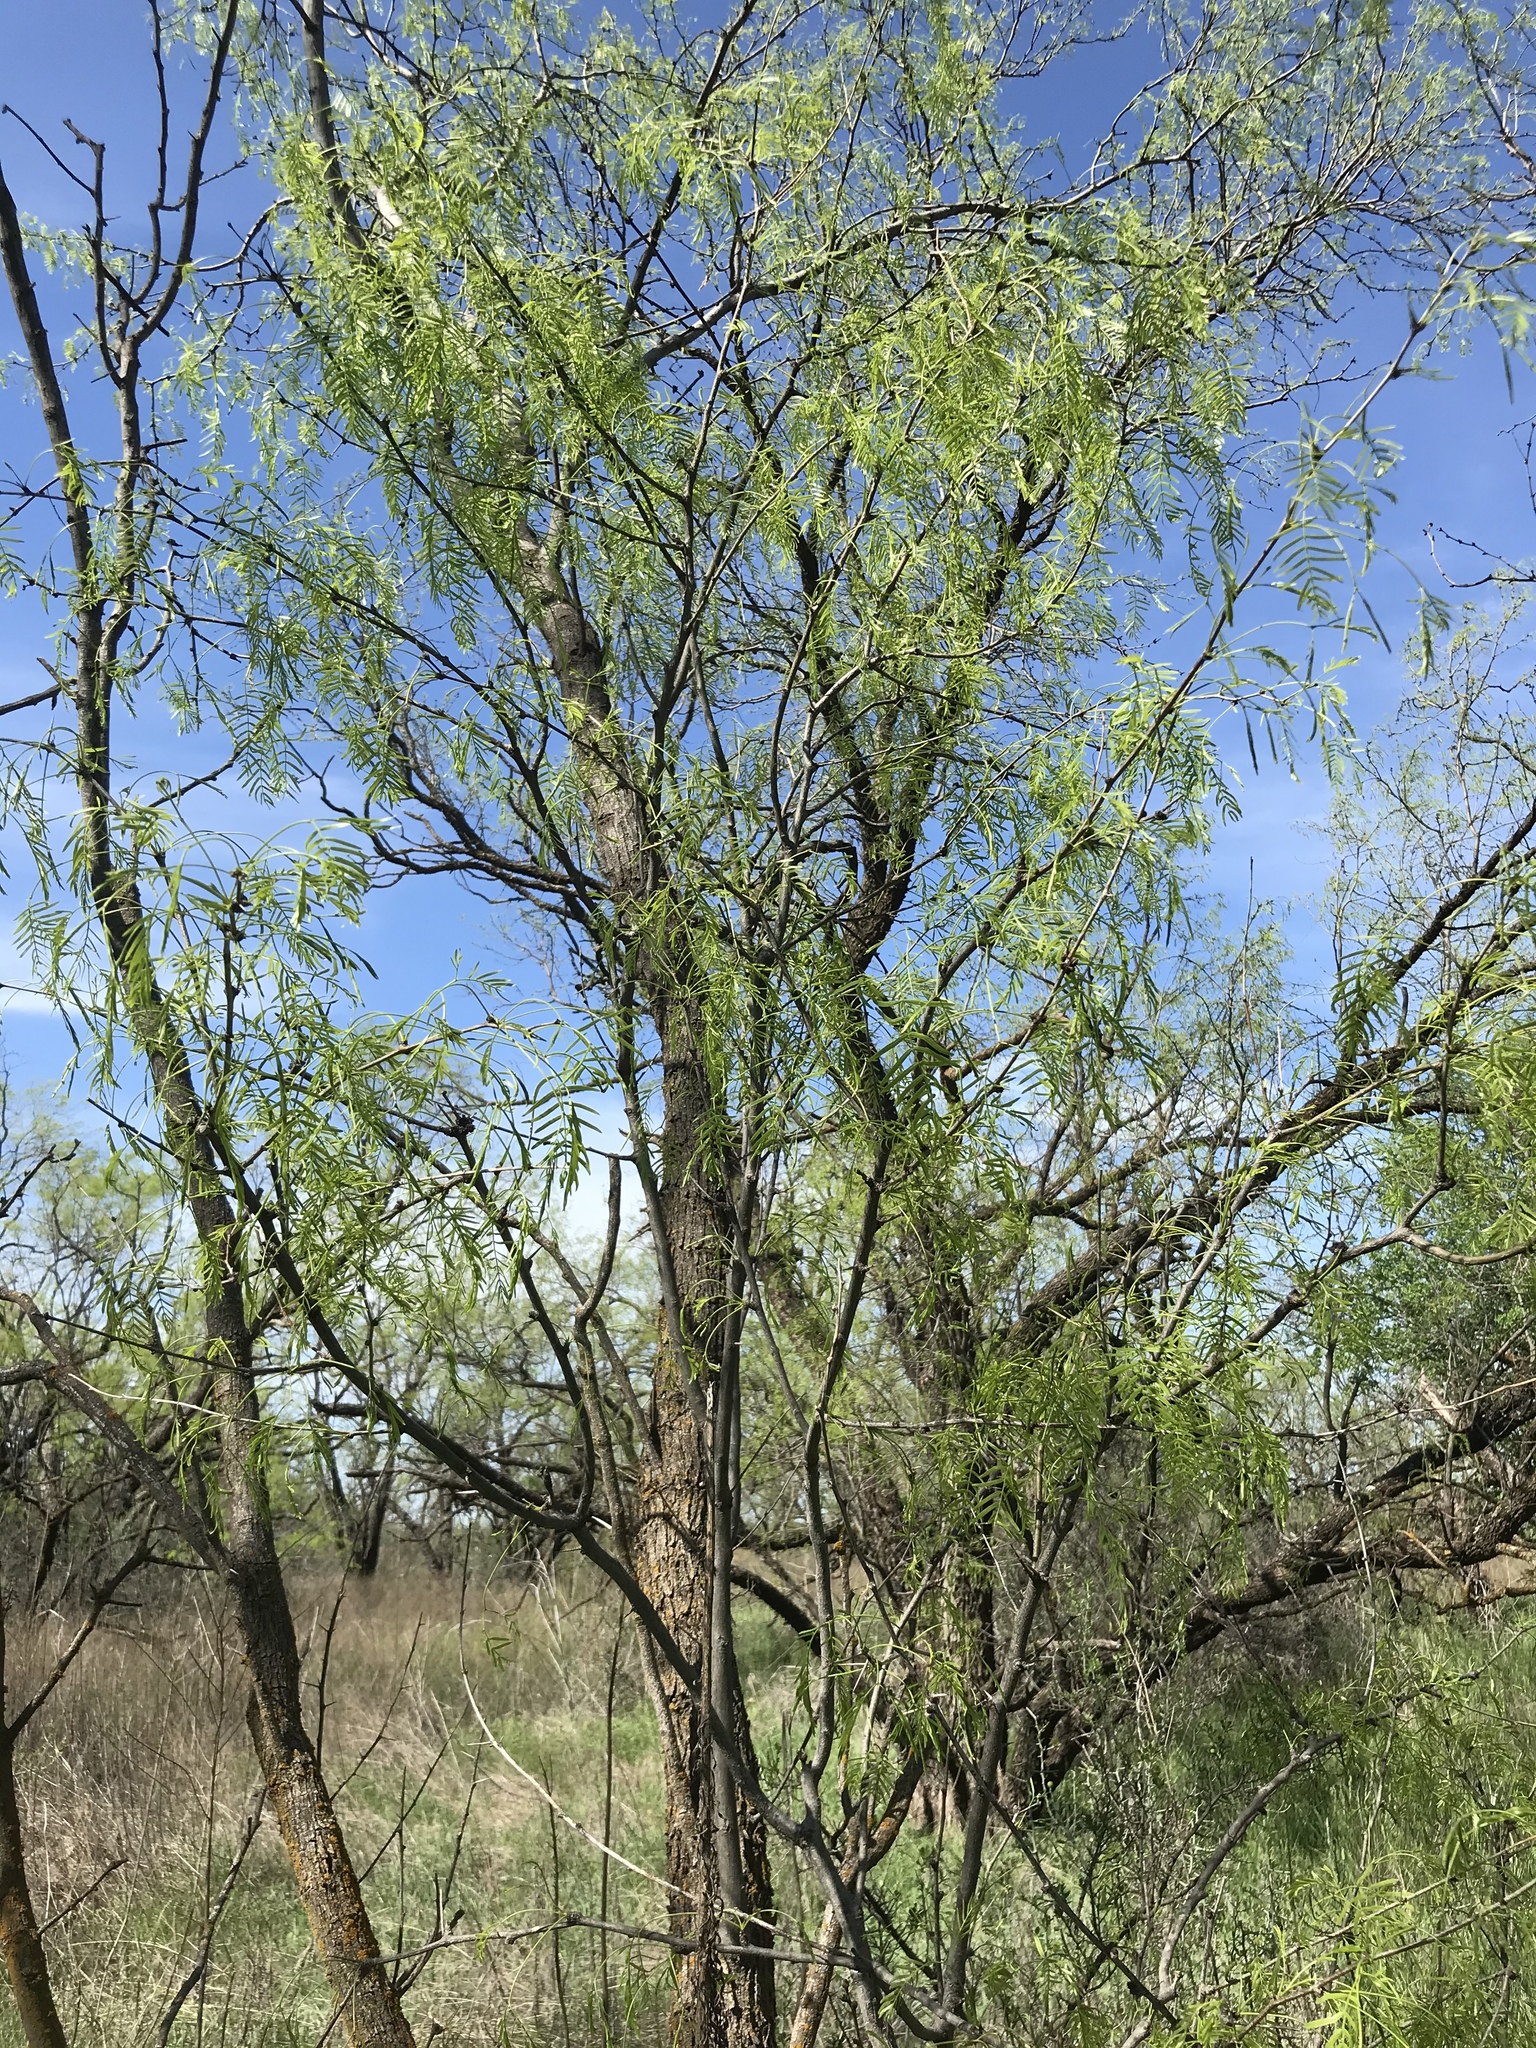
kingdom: Plantae
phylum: Tracheophyta
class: Magnoliopsida
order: Fabales
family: Fabaceae
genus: Prosopis
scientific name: Prosopis glandulosa
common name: Honey mesquite
